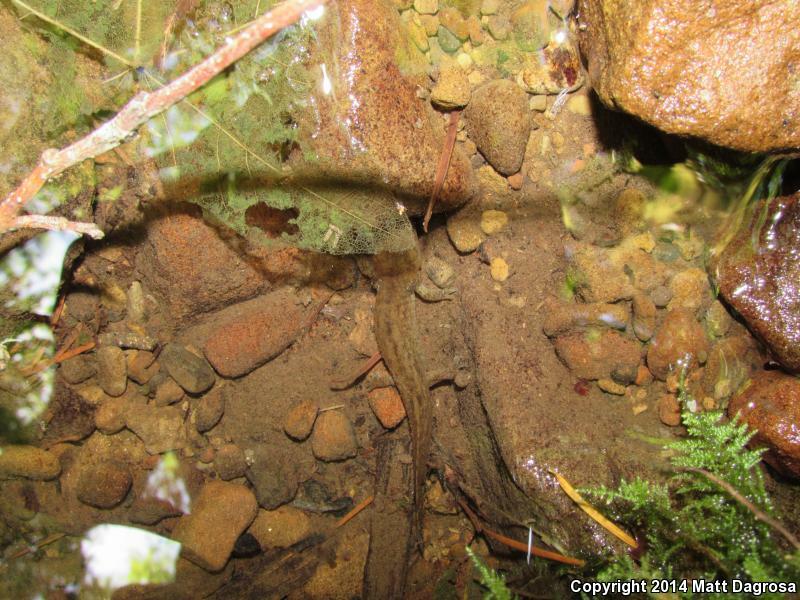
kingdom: Animalia
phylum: Chordata
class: Amphibia
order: Caudata
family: Ambystomatidae
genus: Dicamptodon
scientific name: Dicamptodon tenebrosus
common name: Coastal giant salamander
